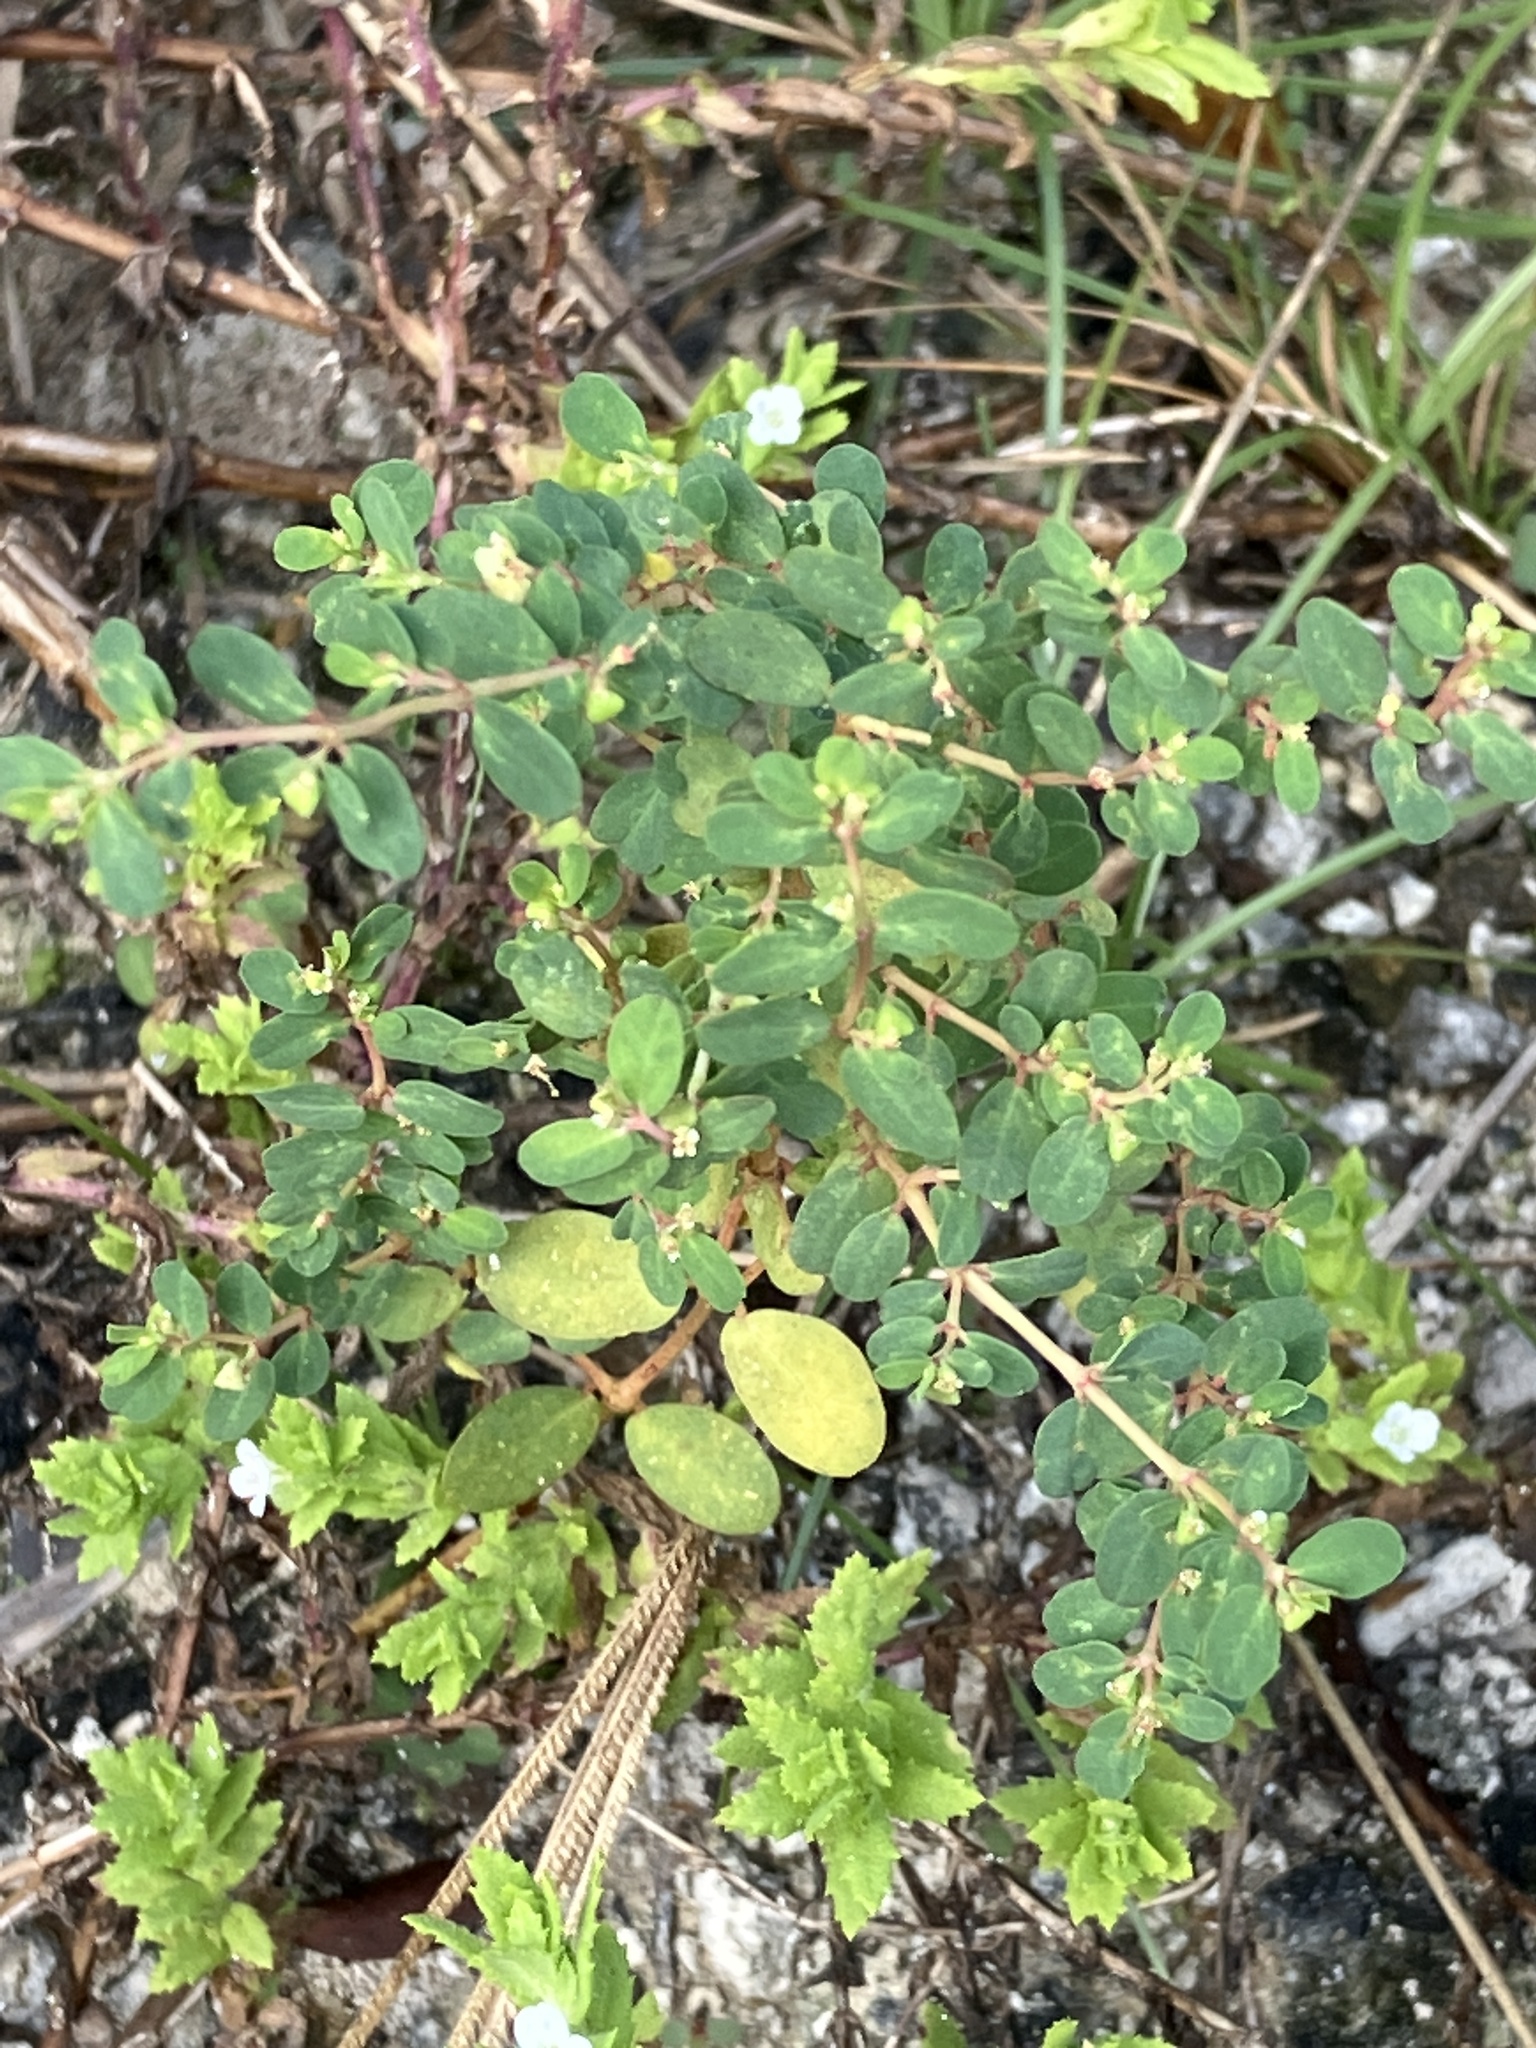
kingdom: Plantae
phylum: Tracheophyta
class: Magnoliopsida
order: Malpighiales
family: Euphorbiaceae
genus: Euphorbia
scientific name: Euphorbia blodgettii
